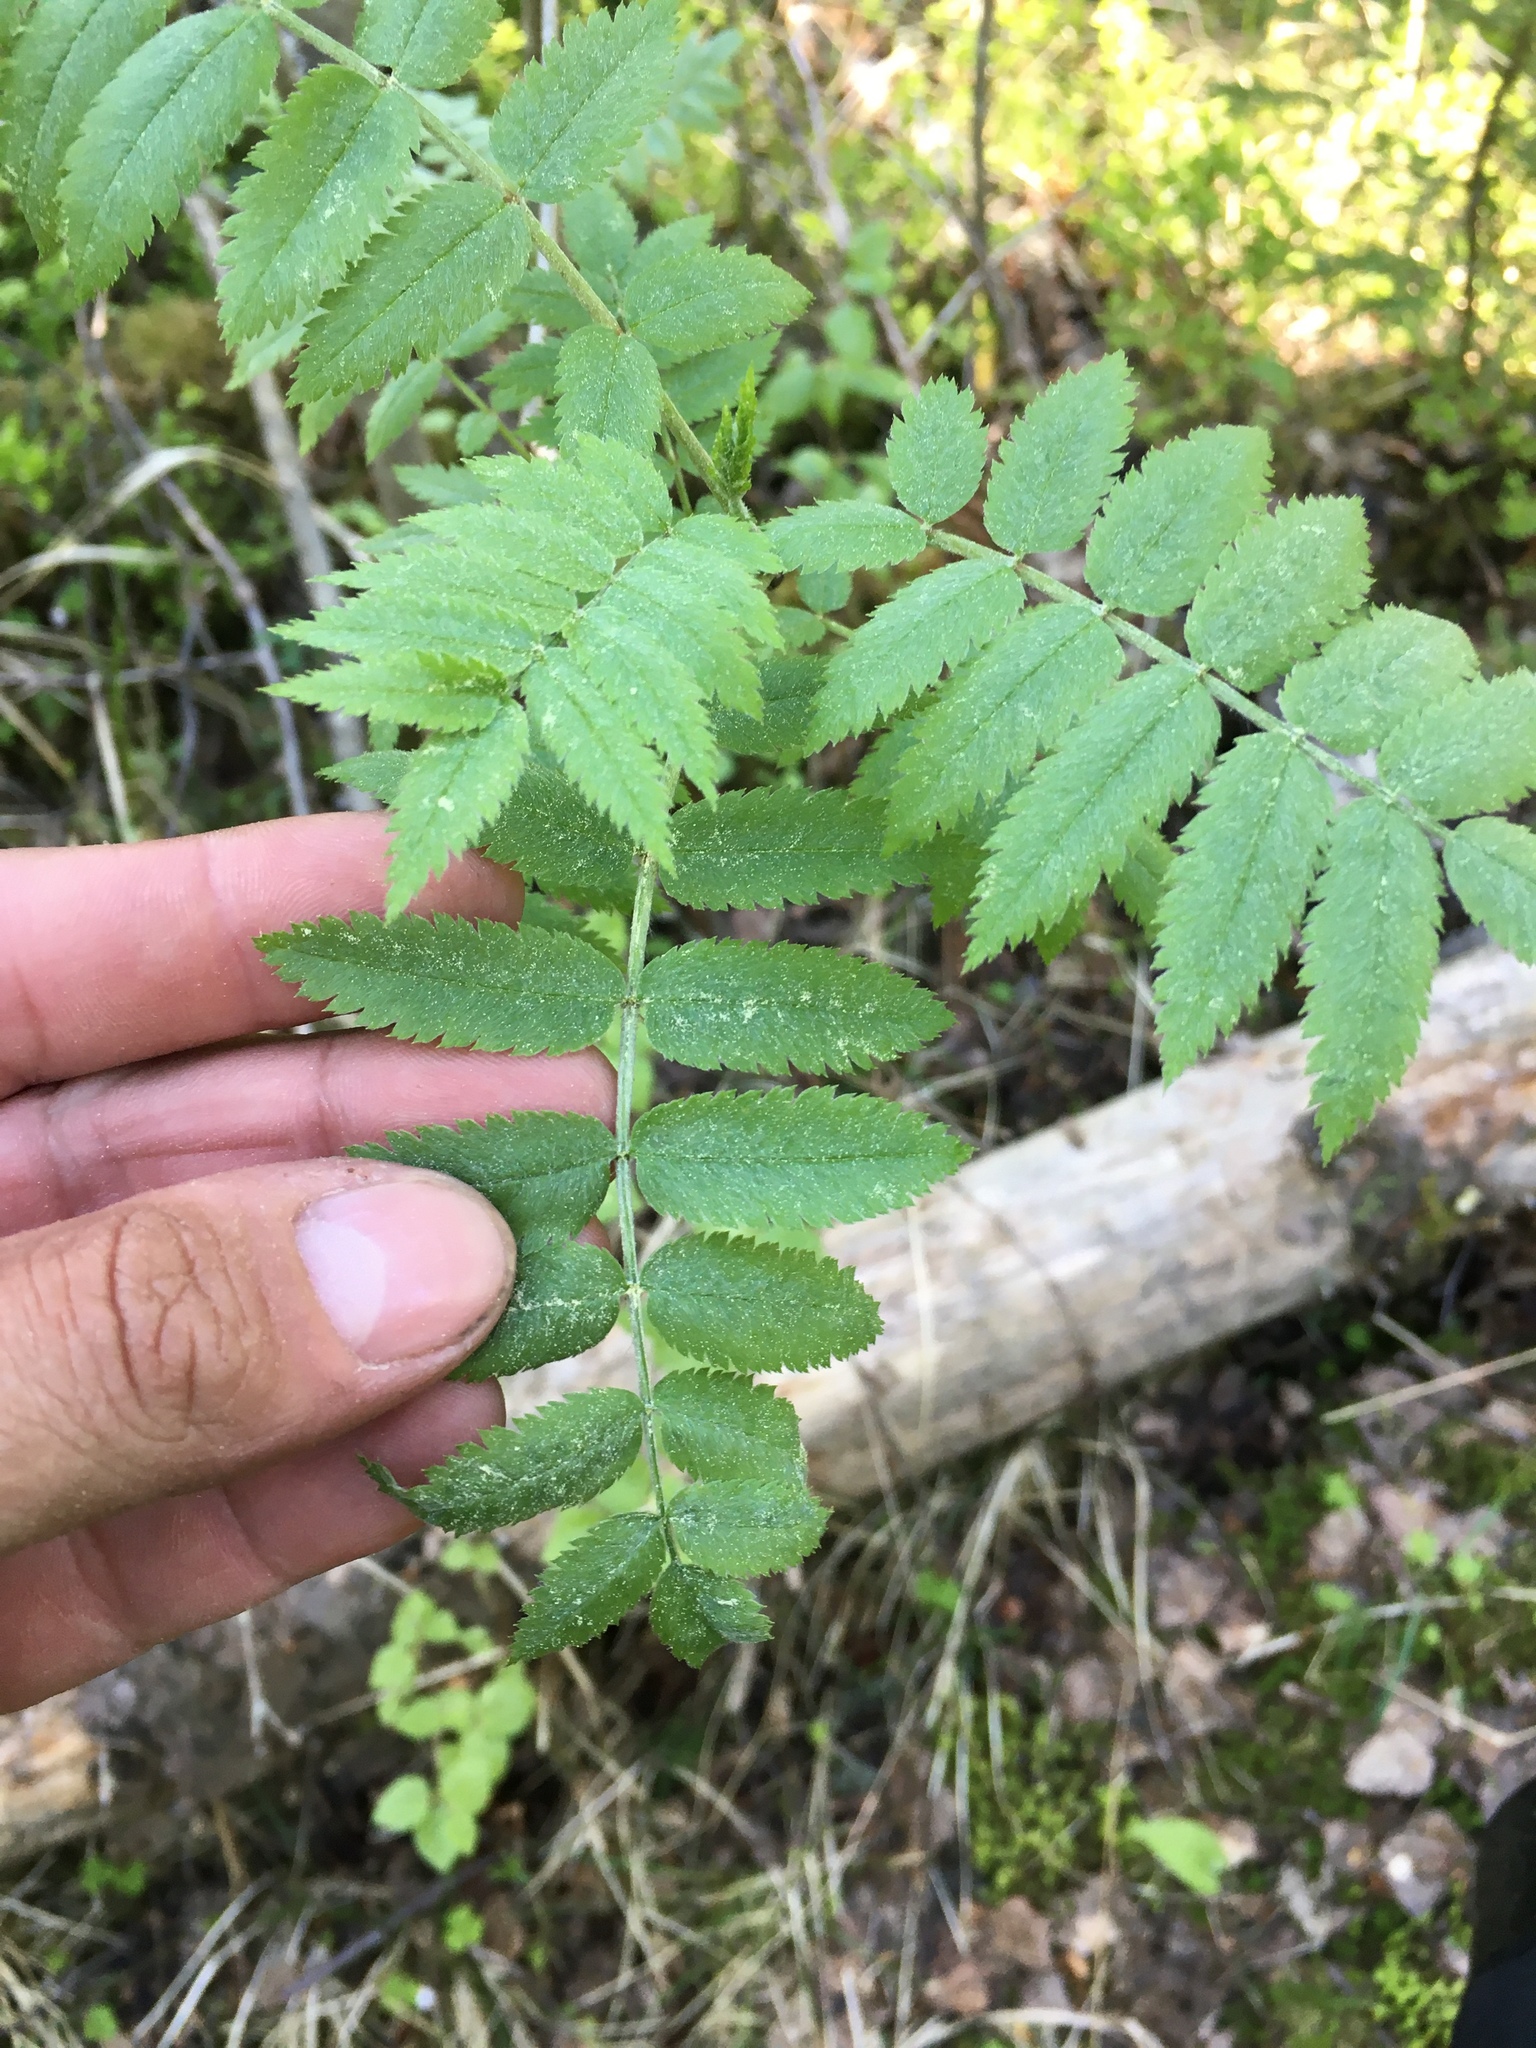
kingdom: Plantae
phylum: Tracheophyta
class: Magnoliopsida
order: Rosales
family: Rosaceae
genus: Sorbus
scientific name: Sorbus aucuparia
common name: Rowan
